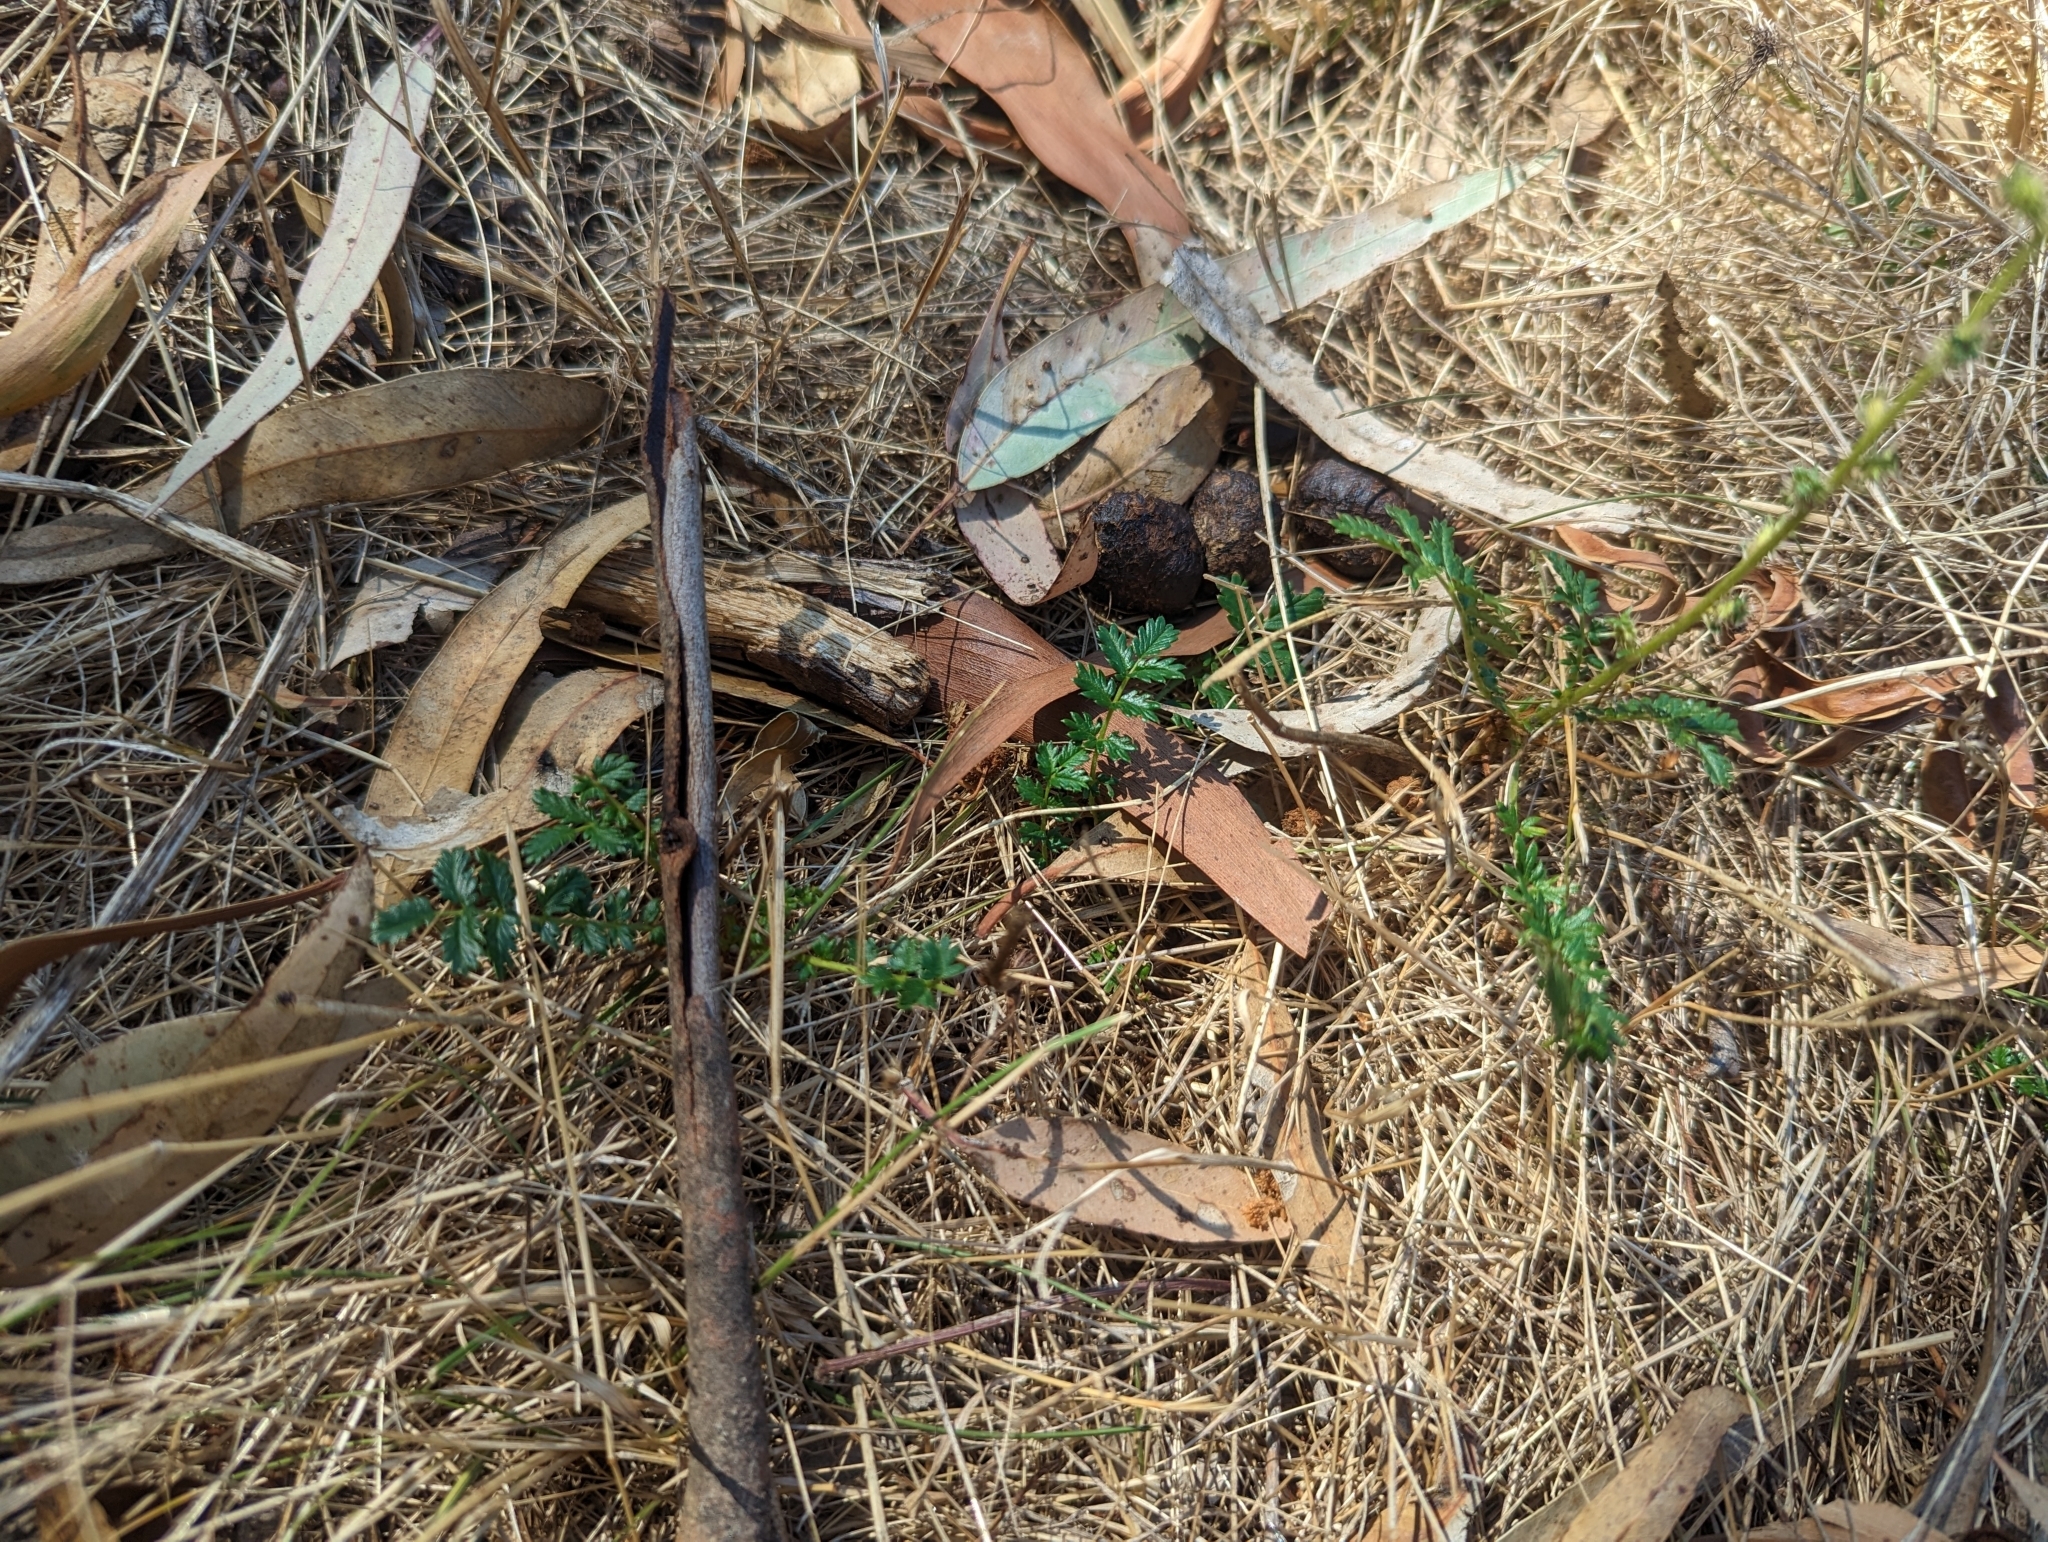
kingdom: Plantae
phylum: Tracheophyta
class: Magnoliopsida
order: Rosales
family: Rosaceae
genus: Acaena
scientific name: Acaena echinata
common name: Sheepbur
